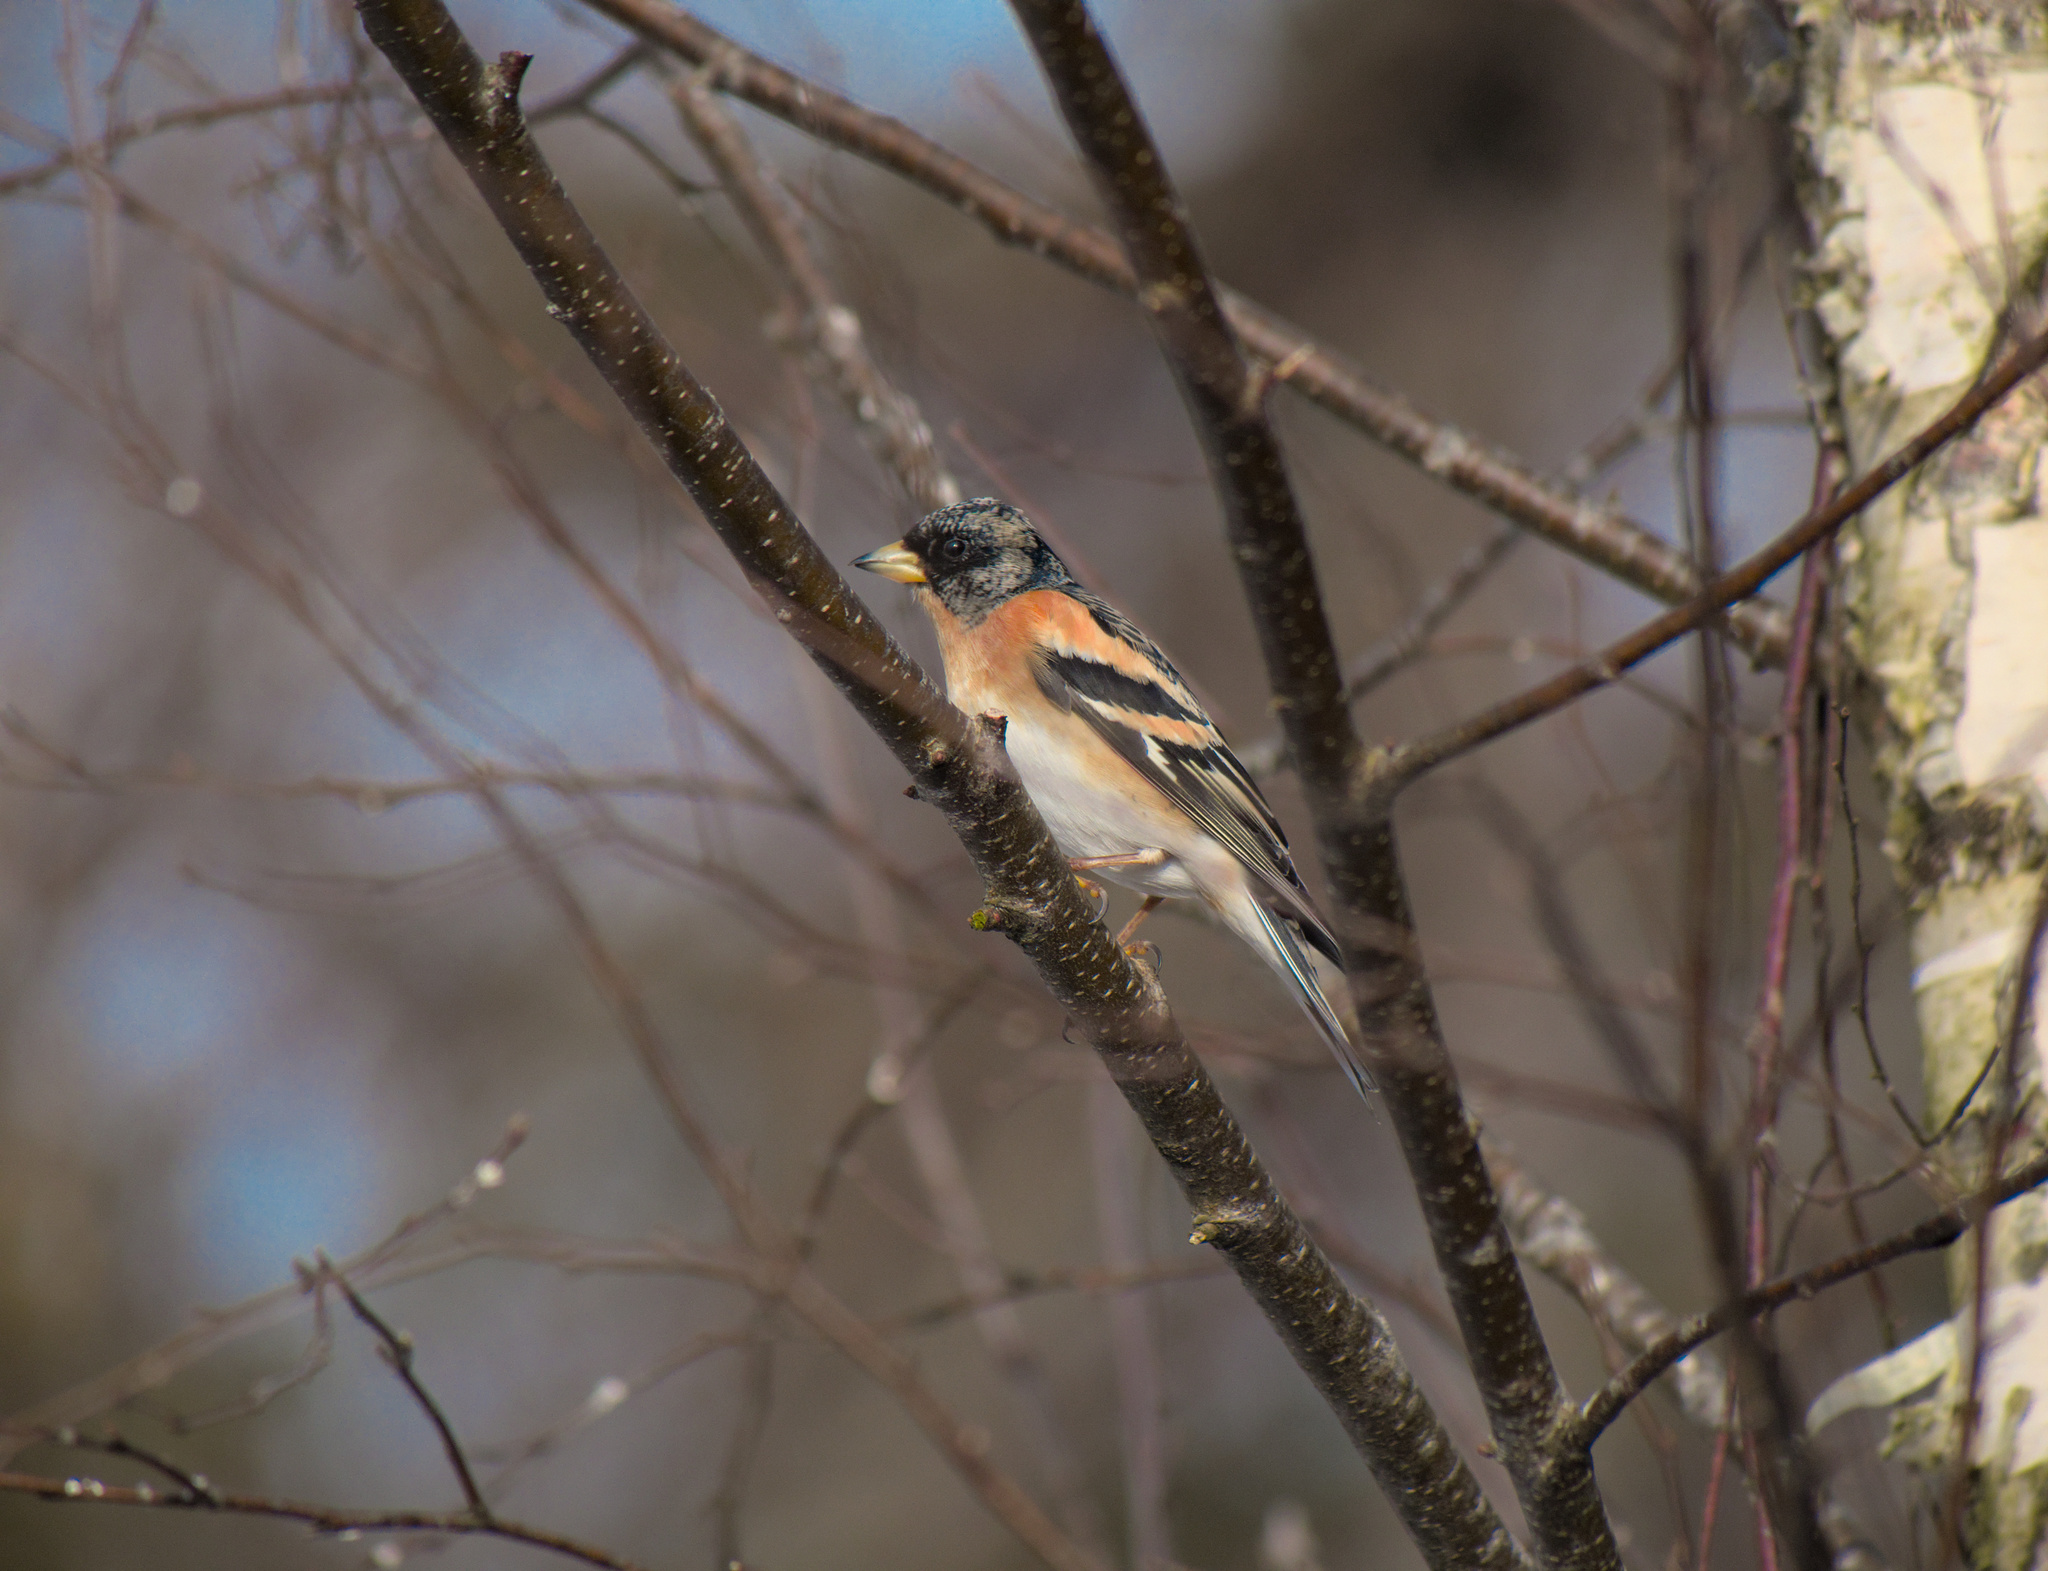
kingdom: Animalia
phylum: Chordata
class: Aves
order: Passeriformes
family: Fringillidae
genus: Fringilla
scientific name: Fringilla montifringilla
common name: Brambling
